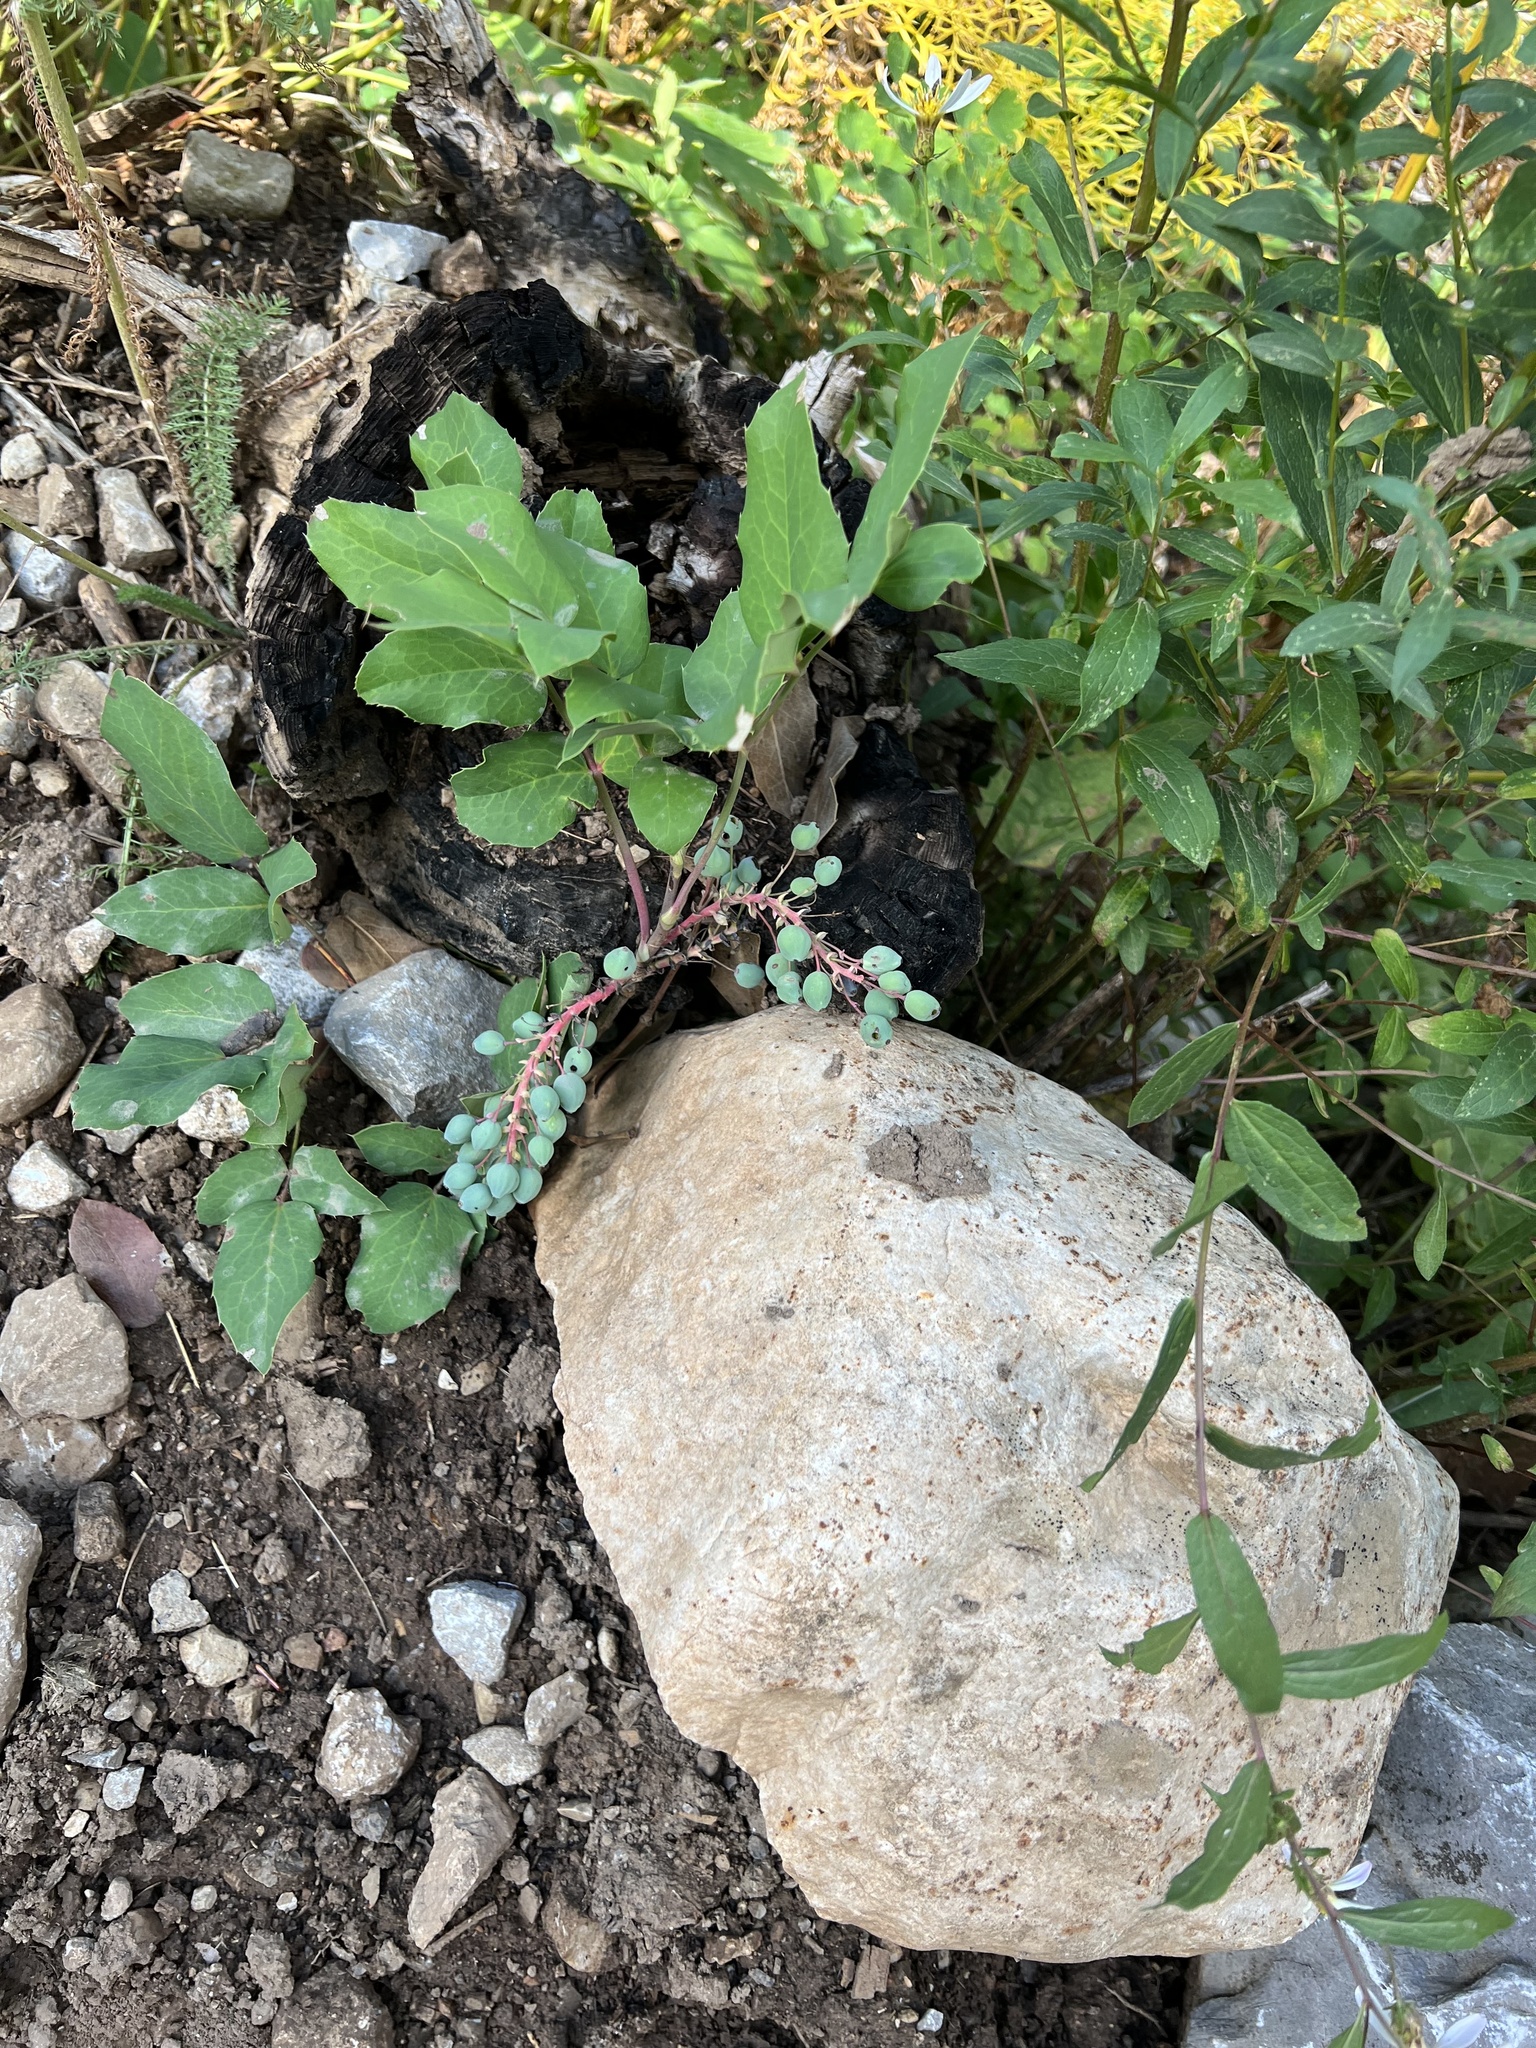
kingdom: Plantae
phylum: Tracheophyta
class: Magnoliopsida
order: Ranunculales
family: Berberidaceae
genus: Mahonia
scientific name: Mahonia repens
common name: Creeping oregon-grape
